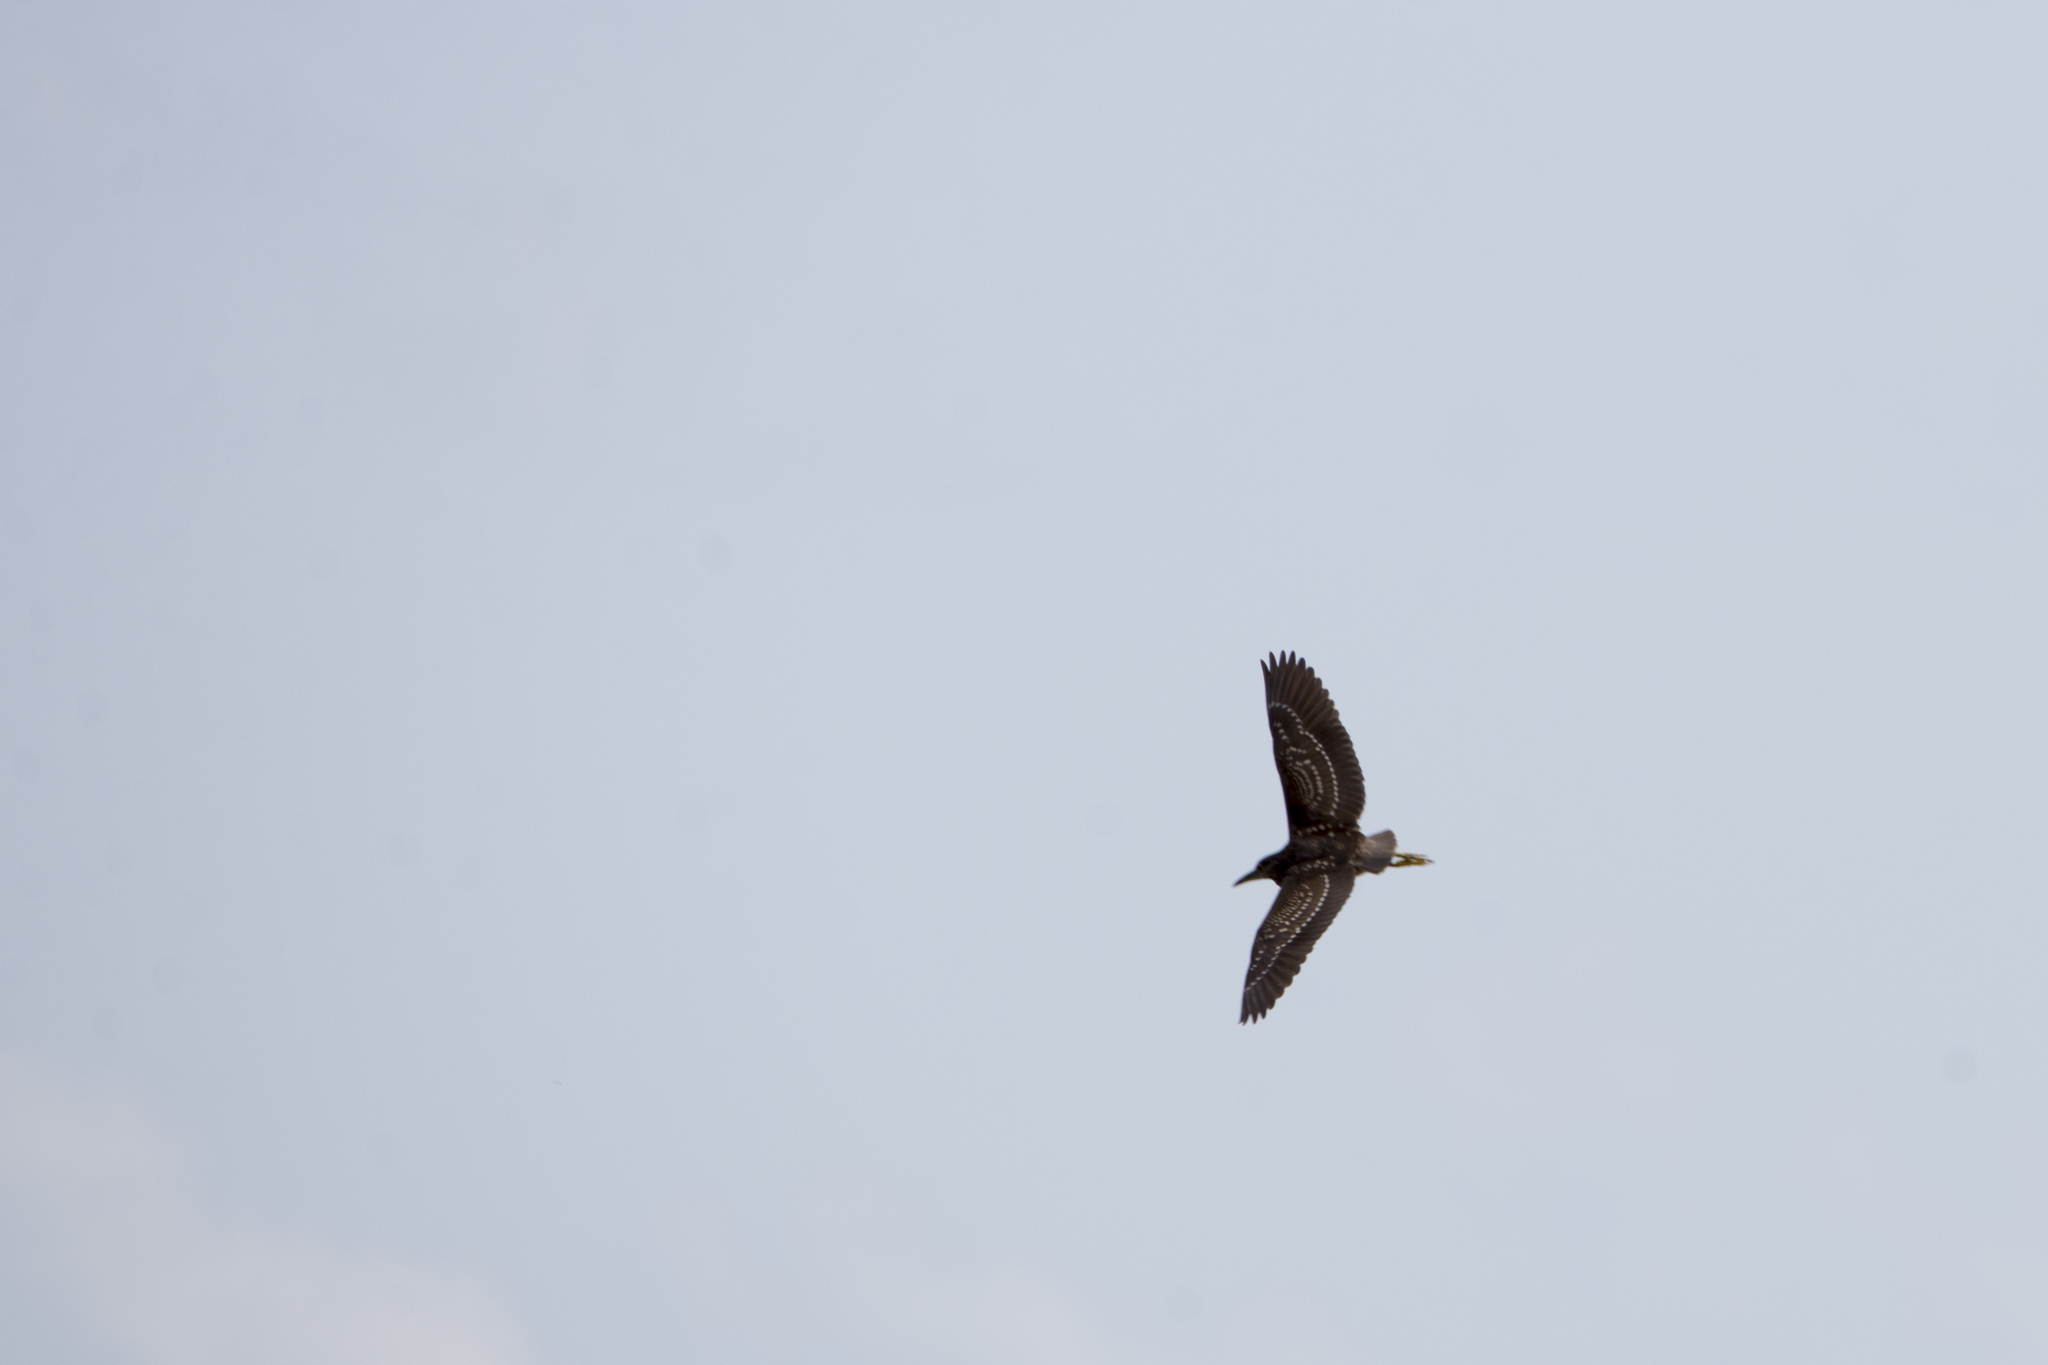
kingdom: Animalia
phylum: Chordata
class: Aves
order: Pelecaniformes
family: Ardeidae
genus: Nycticorax
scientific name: Nycticorax nycticorax
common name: Black-crowned night heron
